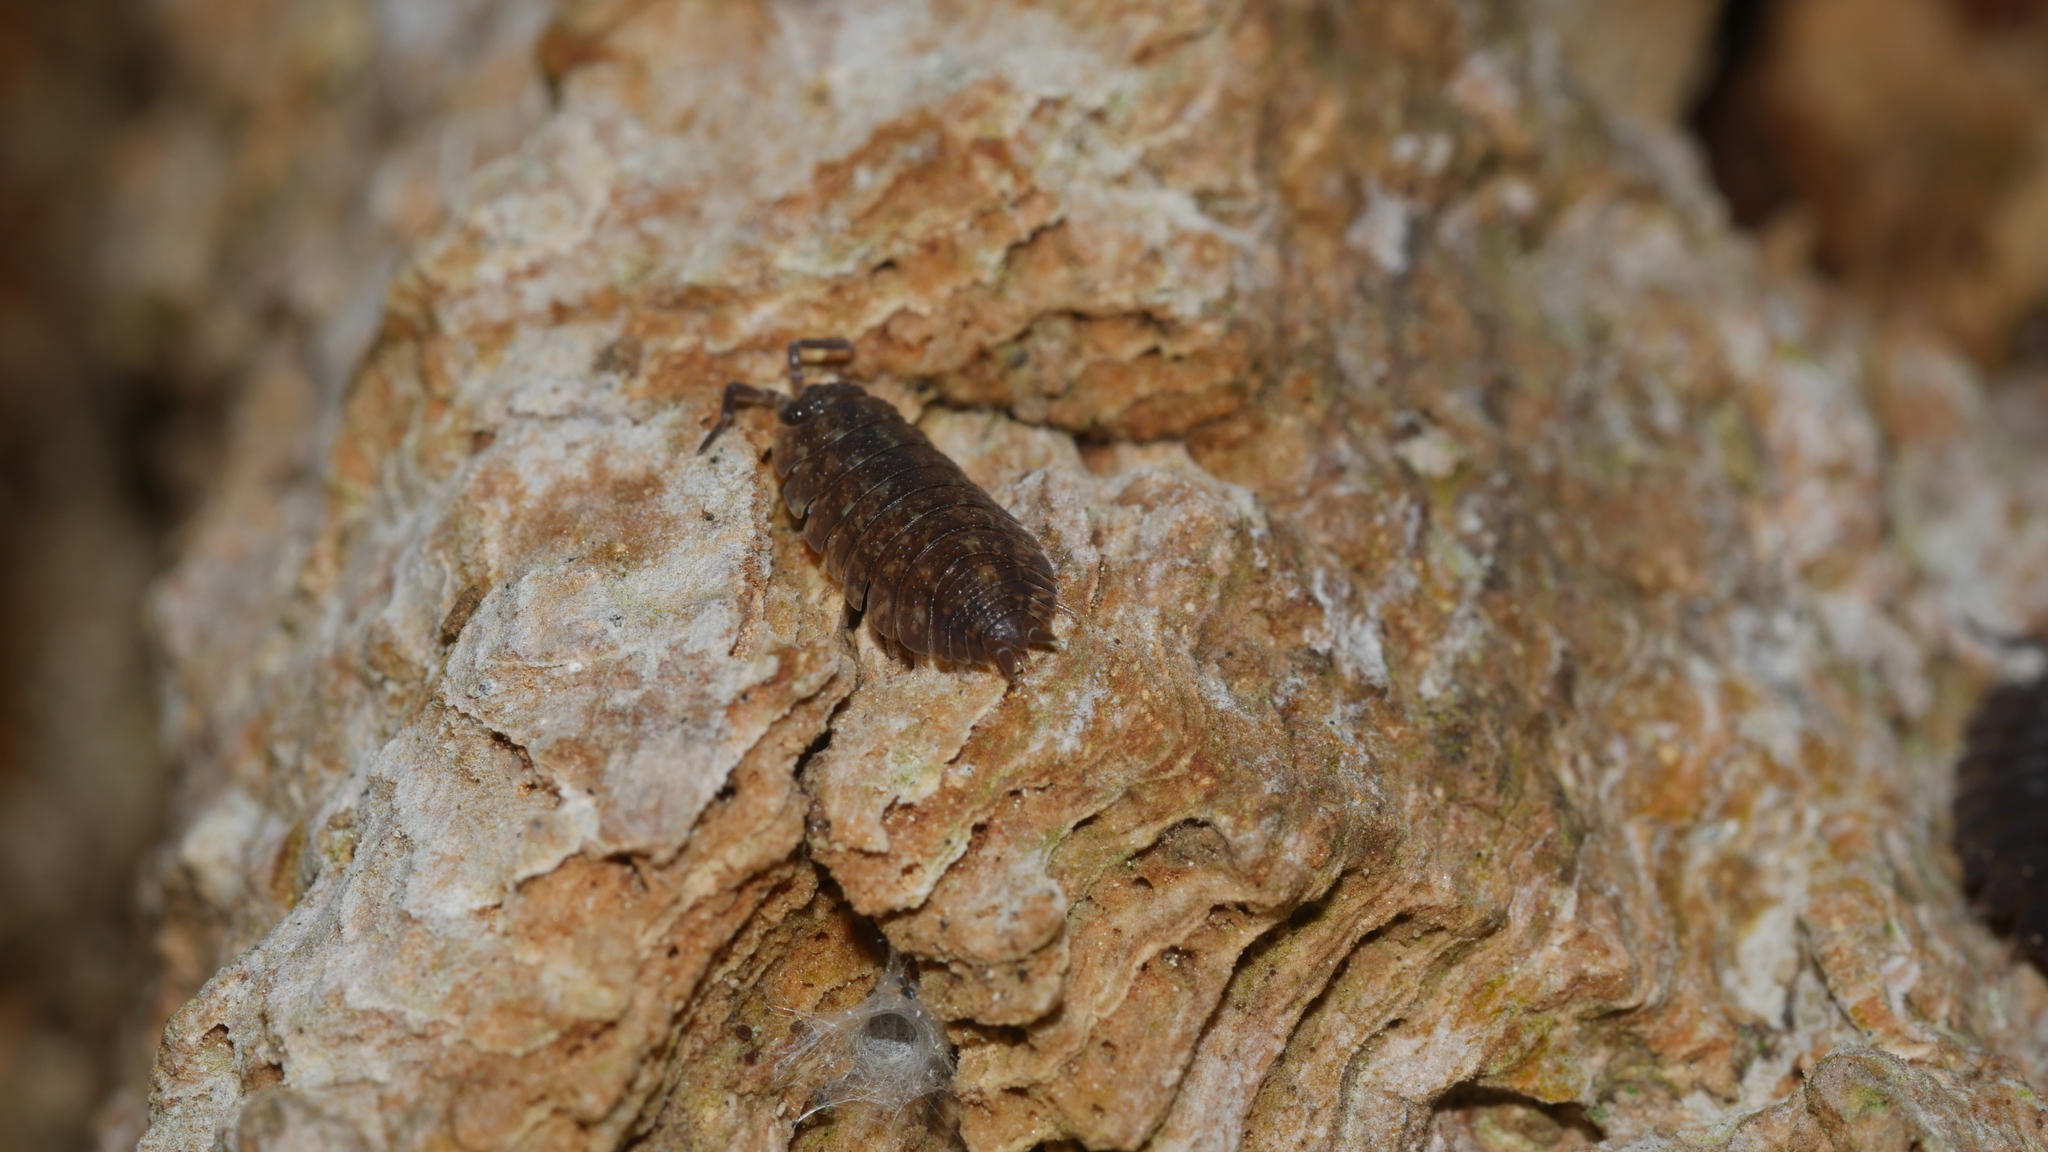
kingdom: Animalia
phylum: Arthropoda
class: Malacostraca
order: Isopoda
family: Porcellionidae
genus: Porcellio
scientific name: Porcellio scaber
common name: Common rough woodlouse
